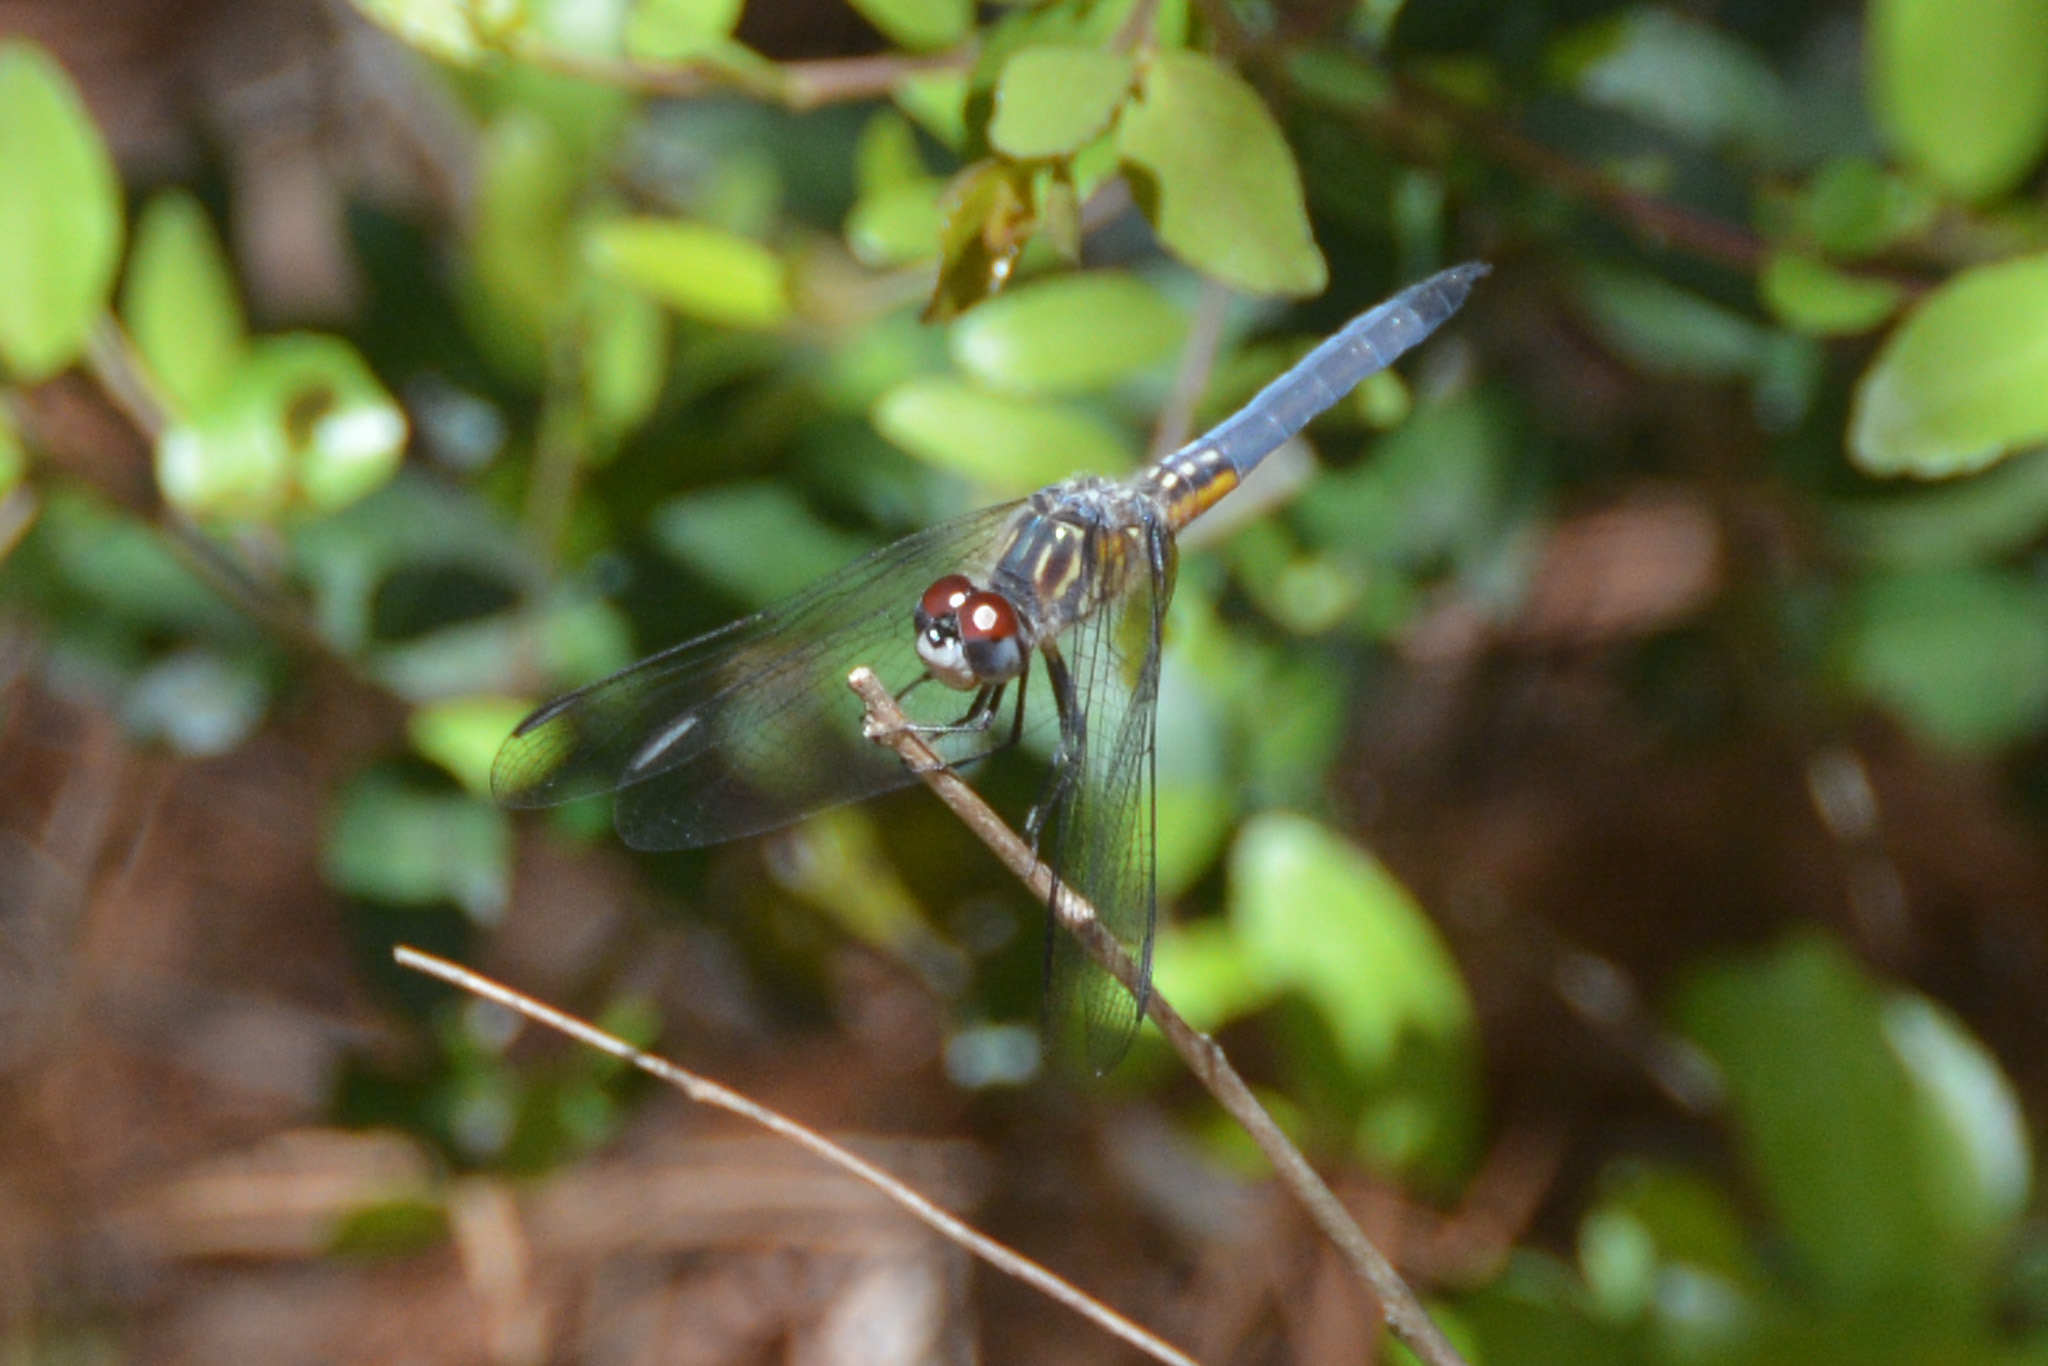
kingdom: Animalia
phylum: Arthropoda
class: Insecta
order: Odonata
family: Libellulidae
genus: Pachydiplax
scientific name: Pachydiplax longipennis
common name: Blue dasher
